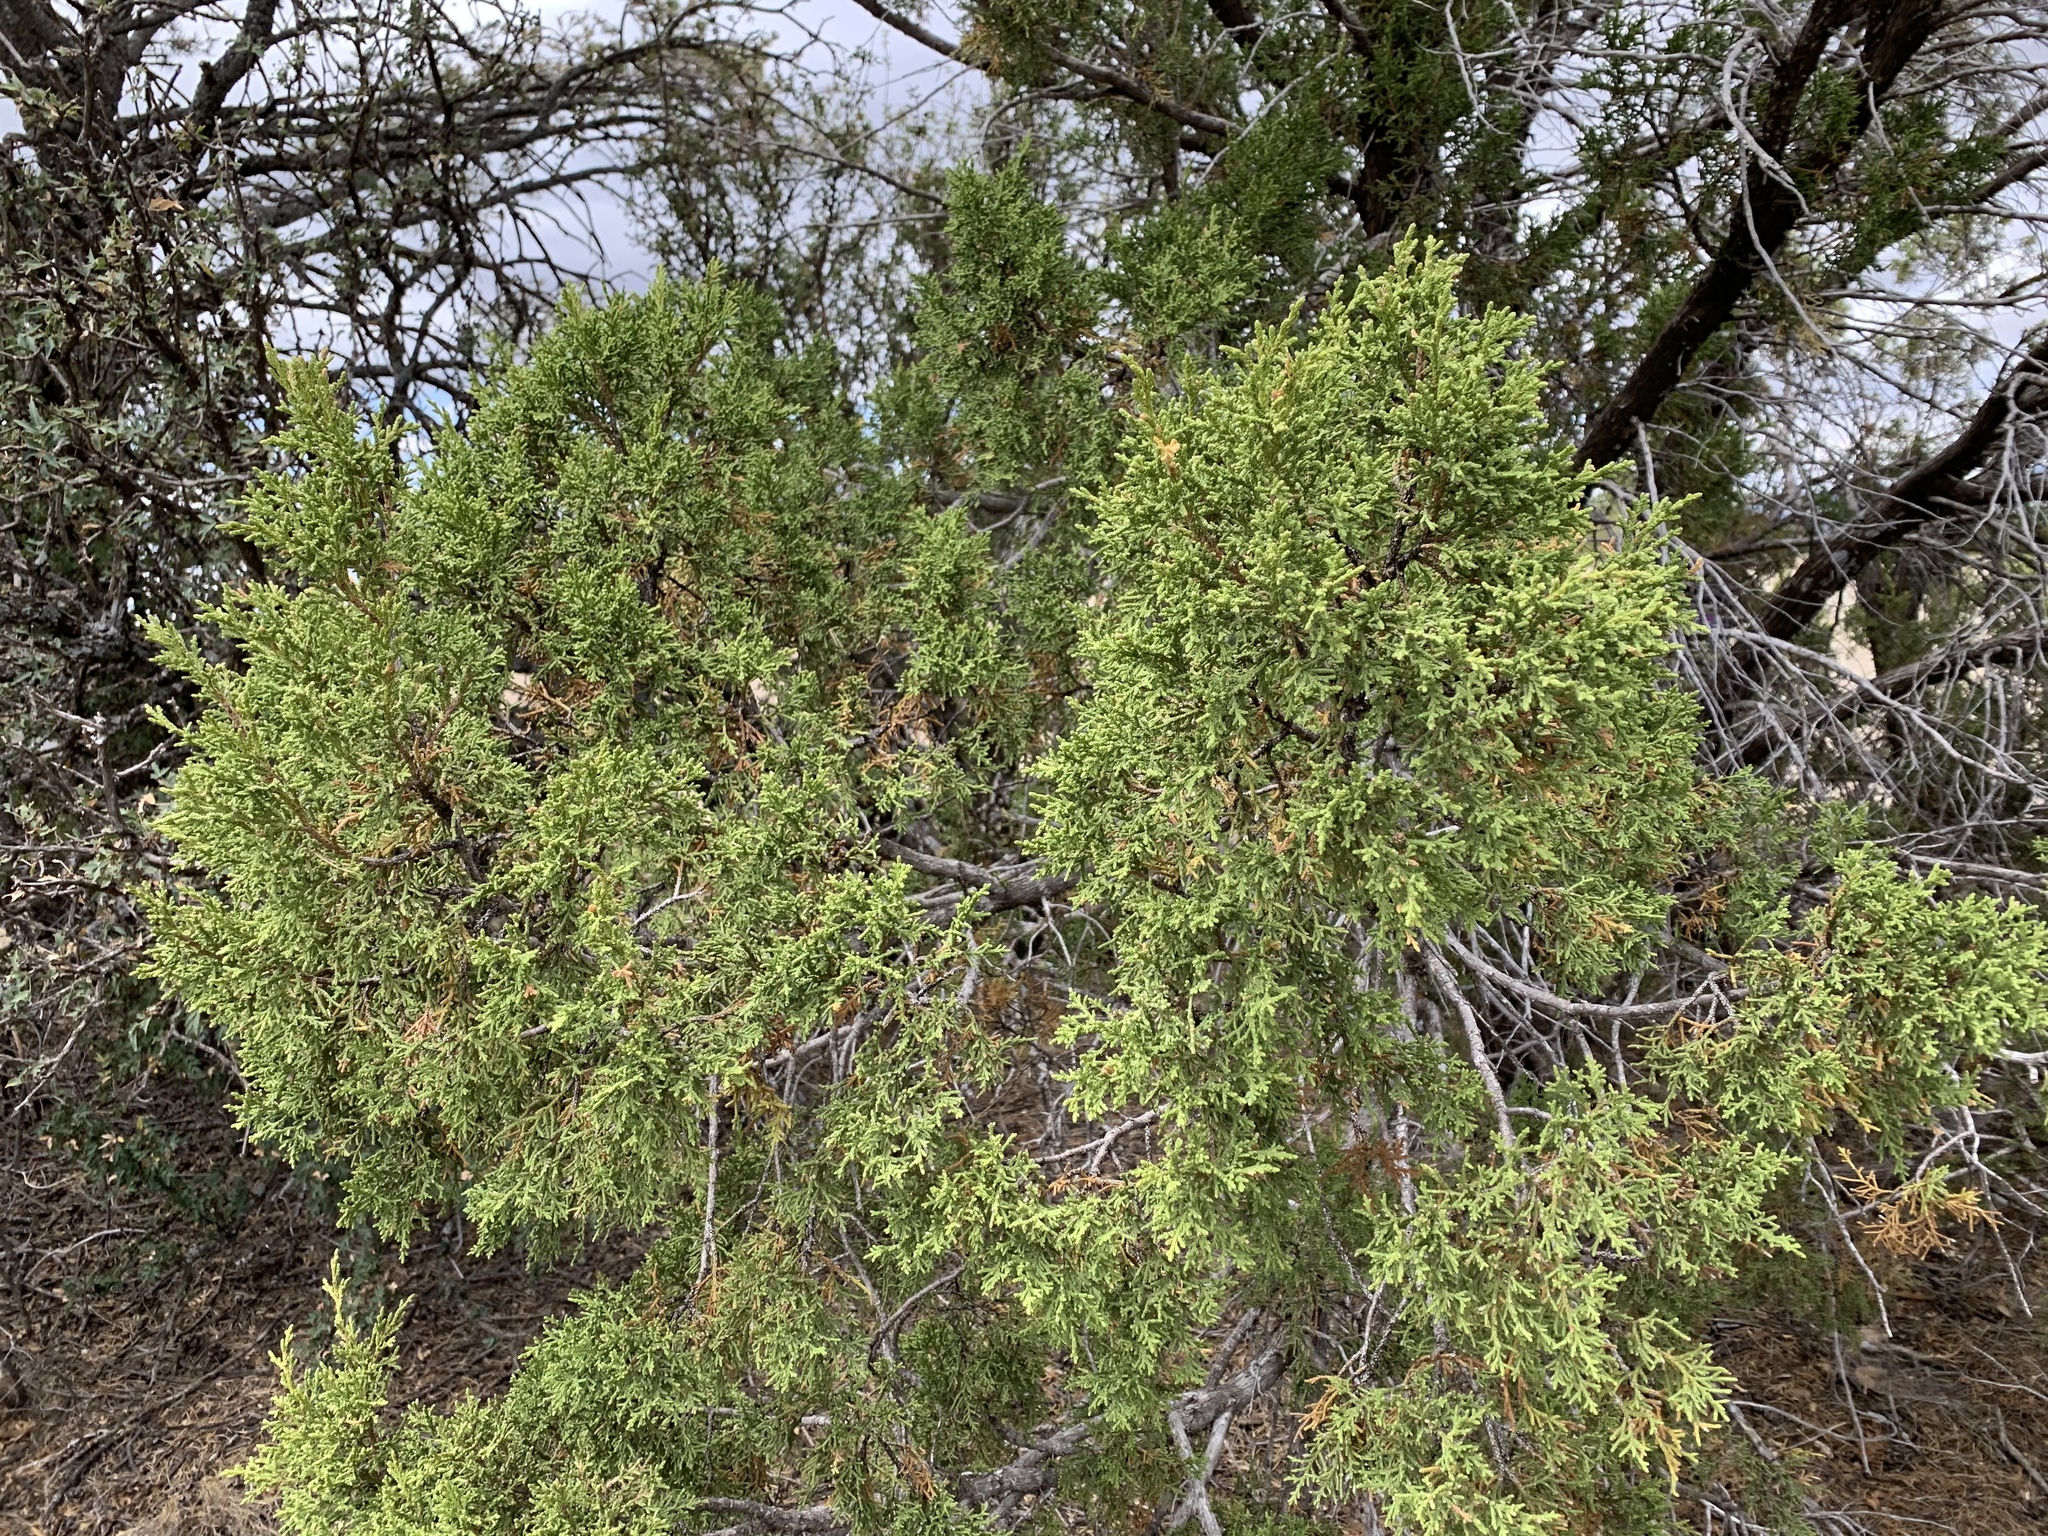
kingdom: Plantae
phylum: Tracheophyta
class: Pinopsida
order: Pinales
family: Cupressaceae
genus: Juniperus
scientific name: Juniperus monosperma
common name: One-seed juniper
